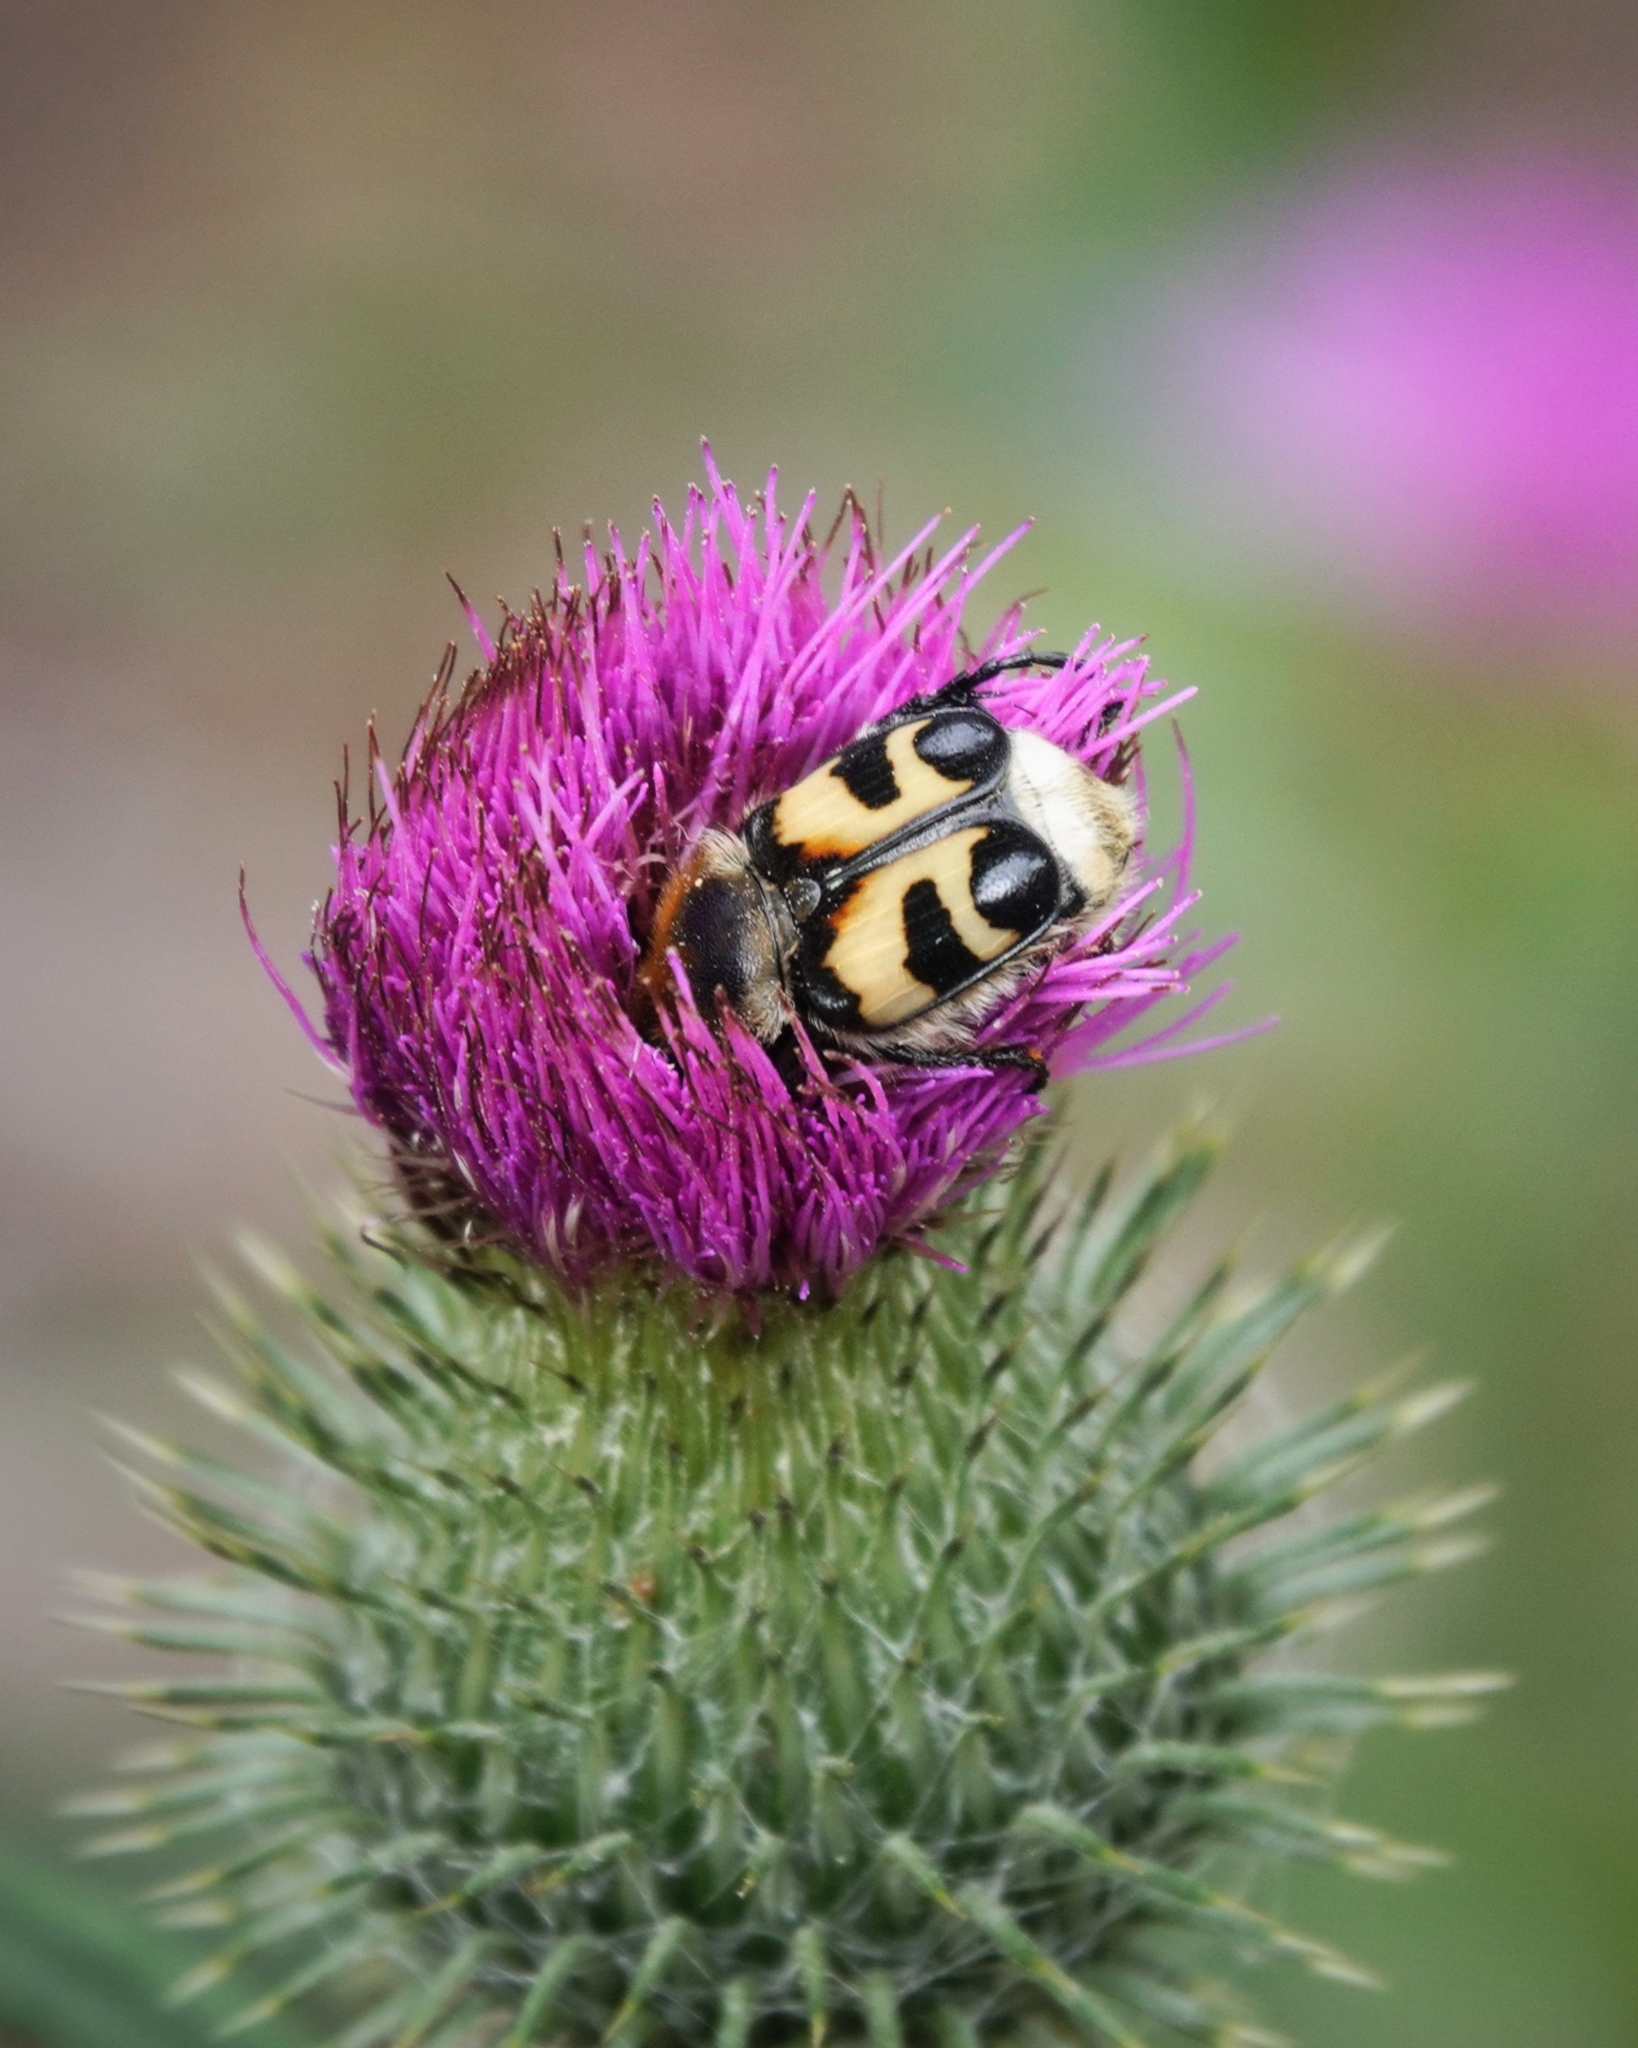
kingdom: Animalia
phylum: Arthropoda
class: Insecta
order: Coleoptera
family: Scarabaeidae
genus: Trichius
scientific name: Trichius fasciatus
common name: Bee beetle
